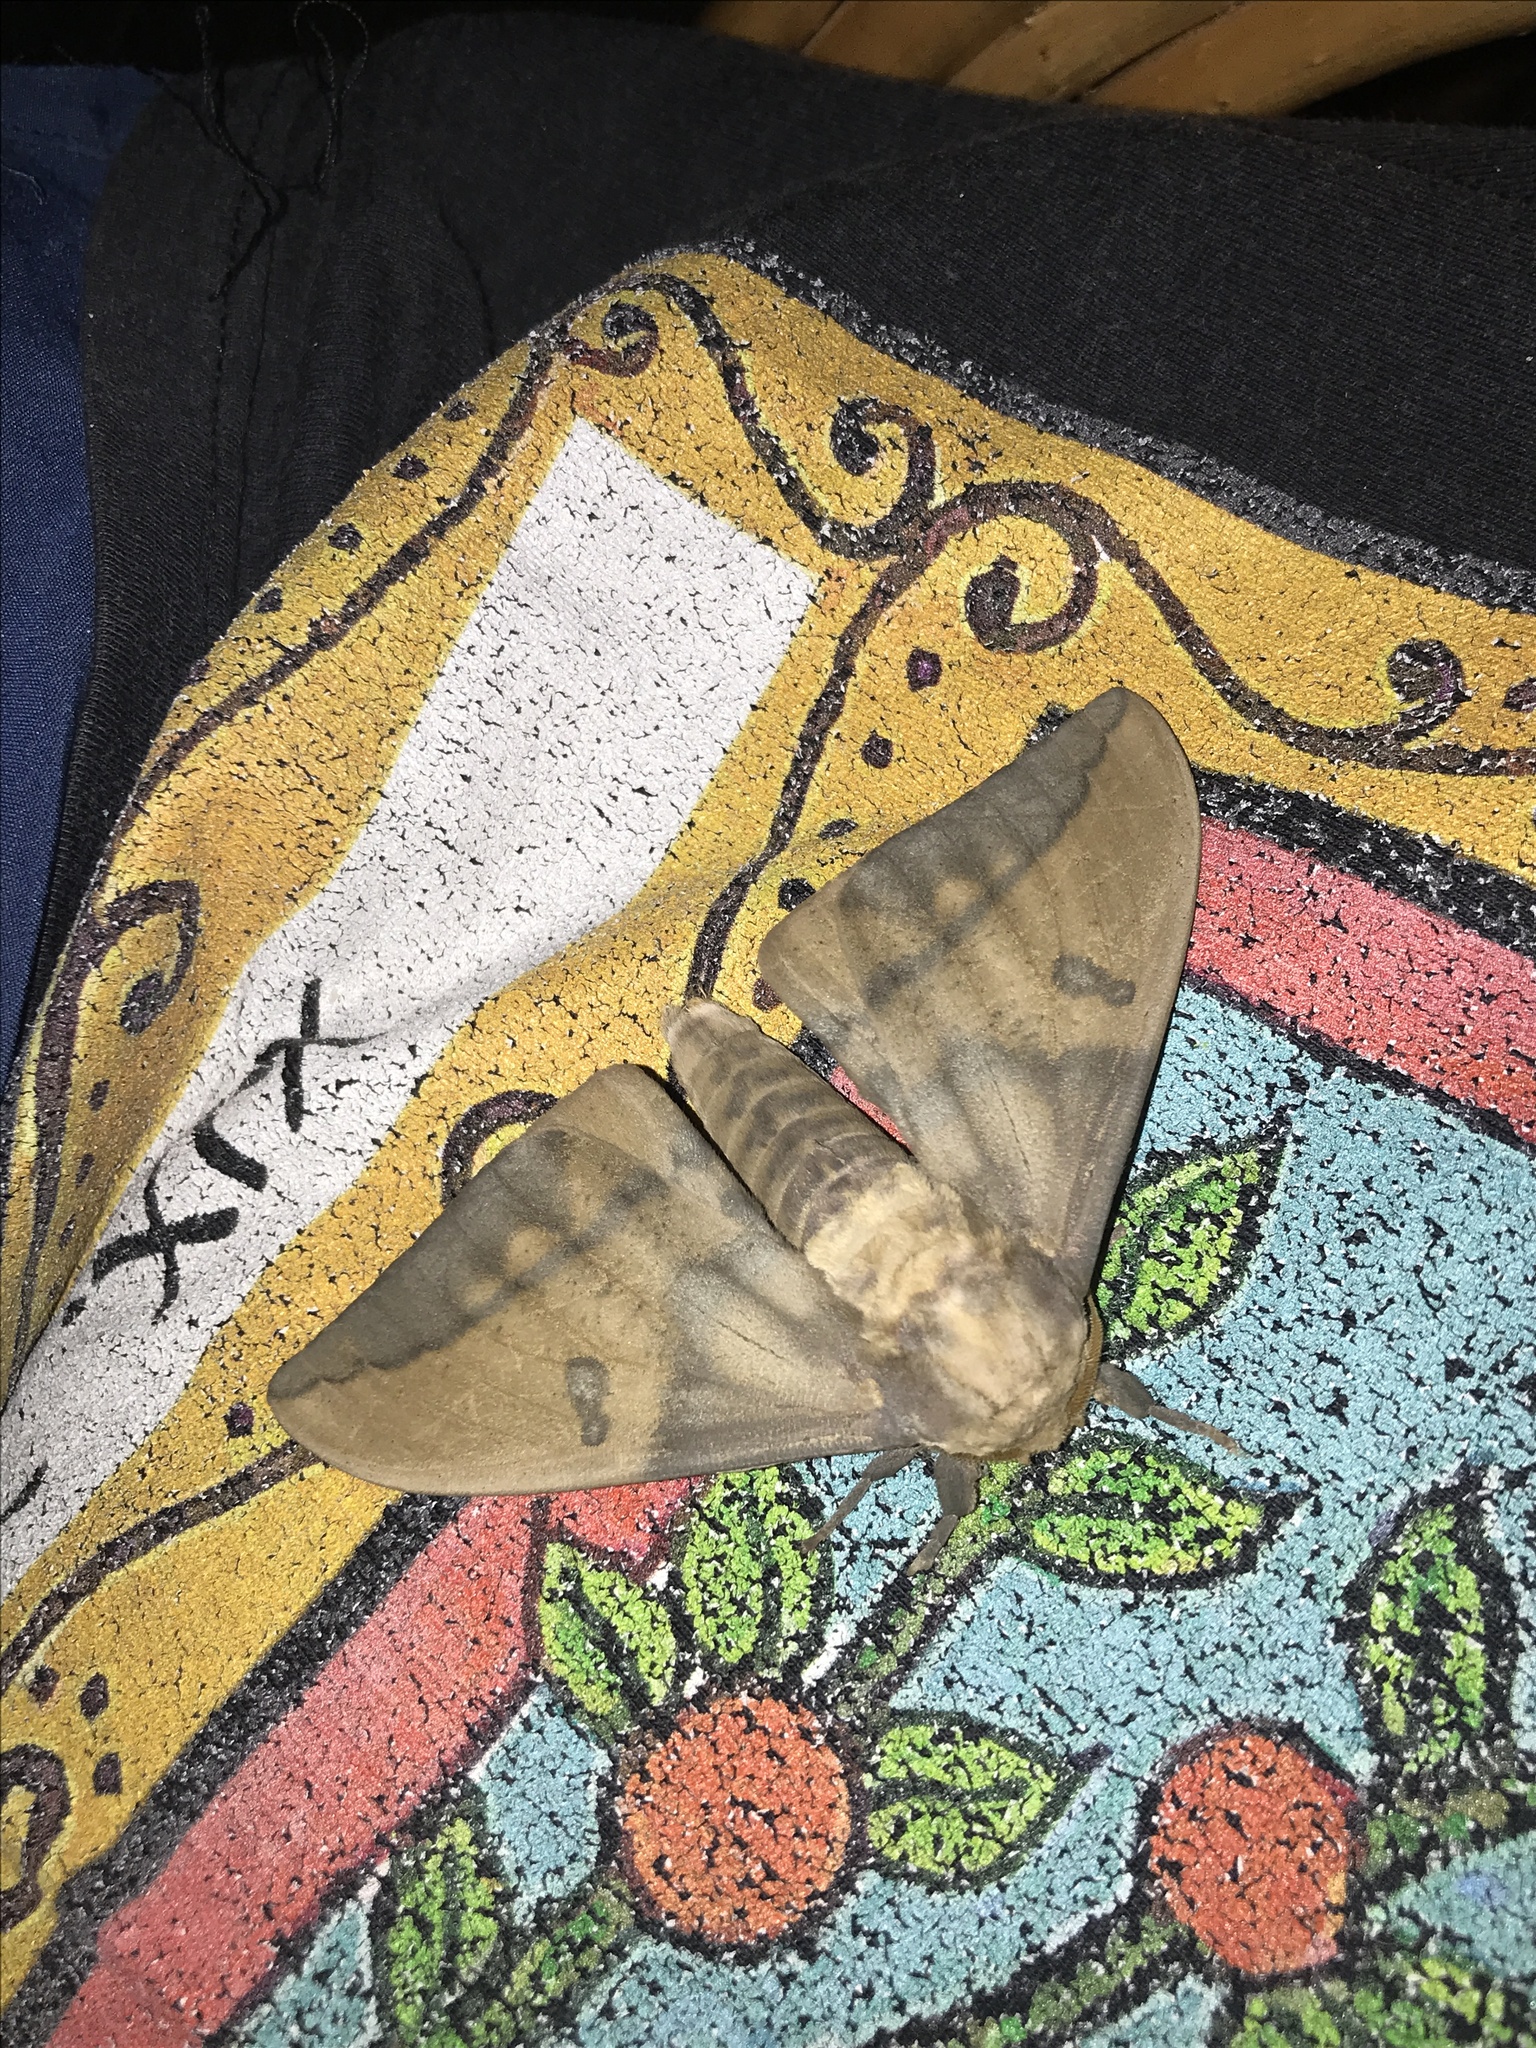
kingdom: Animalia
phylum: Arthropoda
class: Insecta
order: Lepidoptera
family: Saturniidae
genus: Eacles
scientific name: Eacles imperialis
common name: Imperial moth
